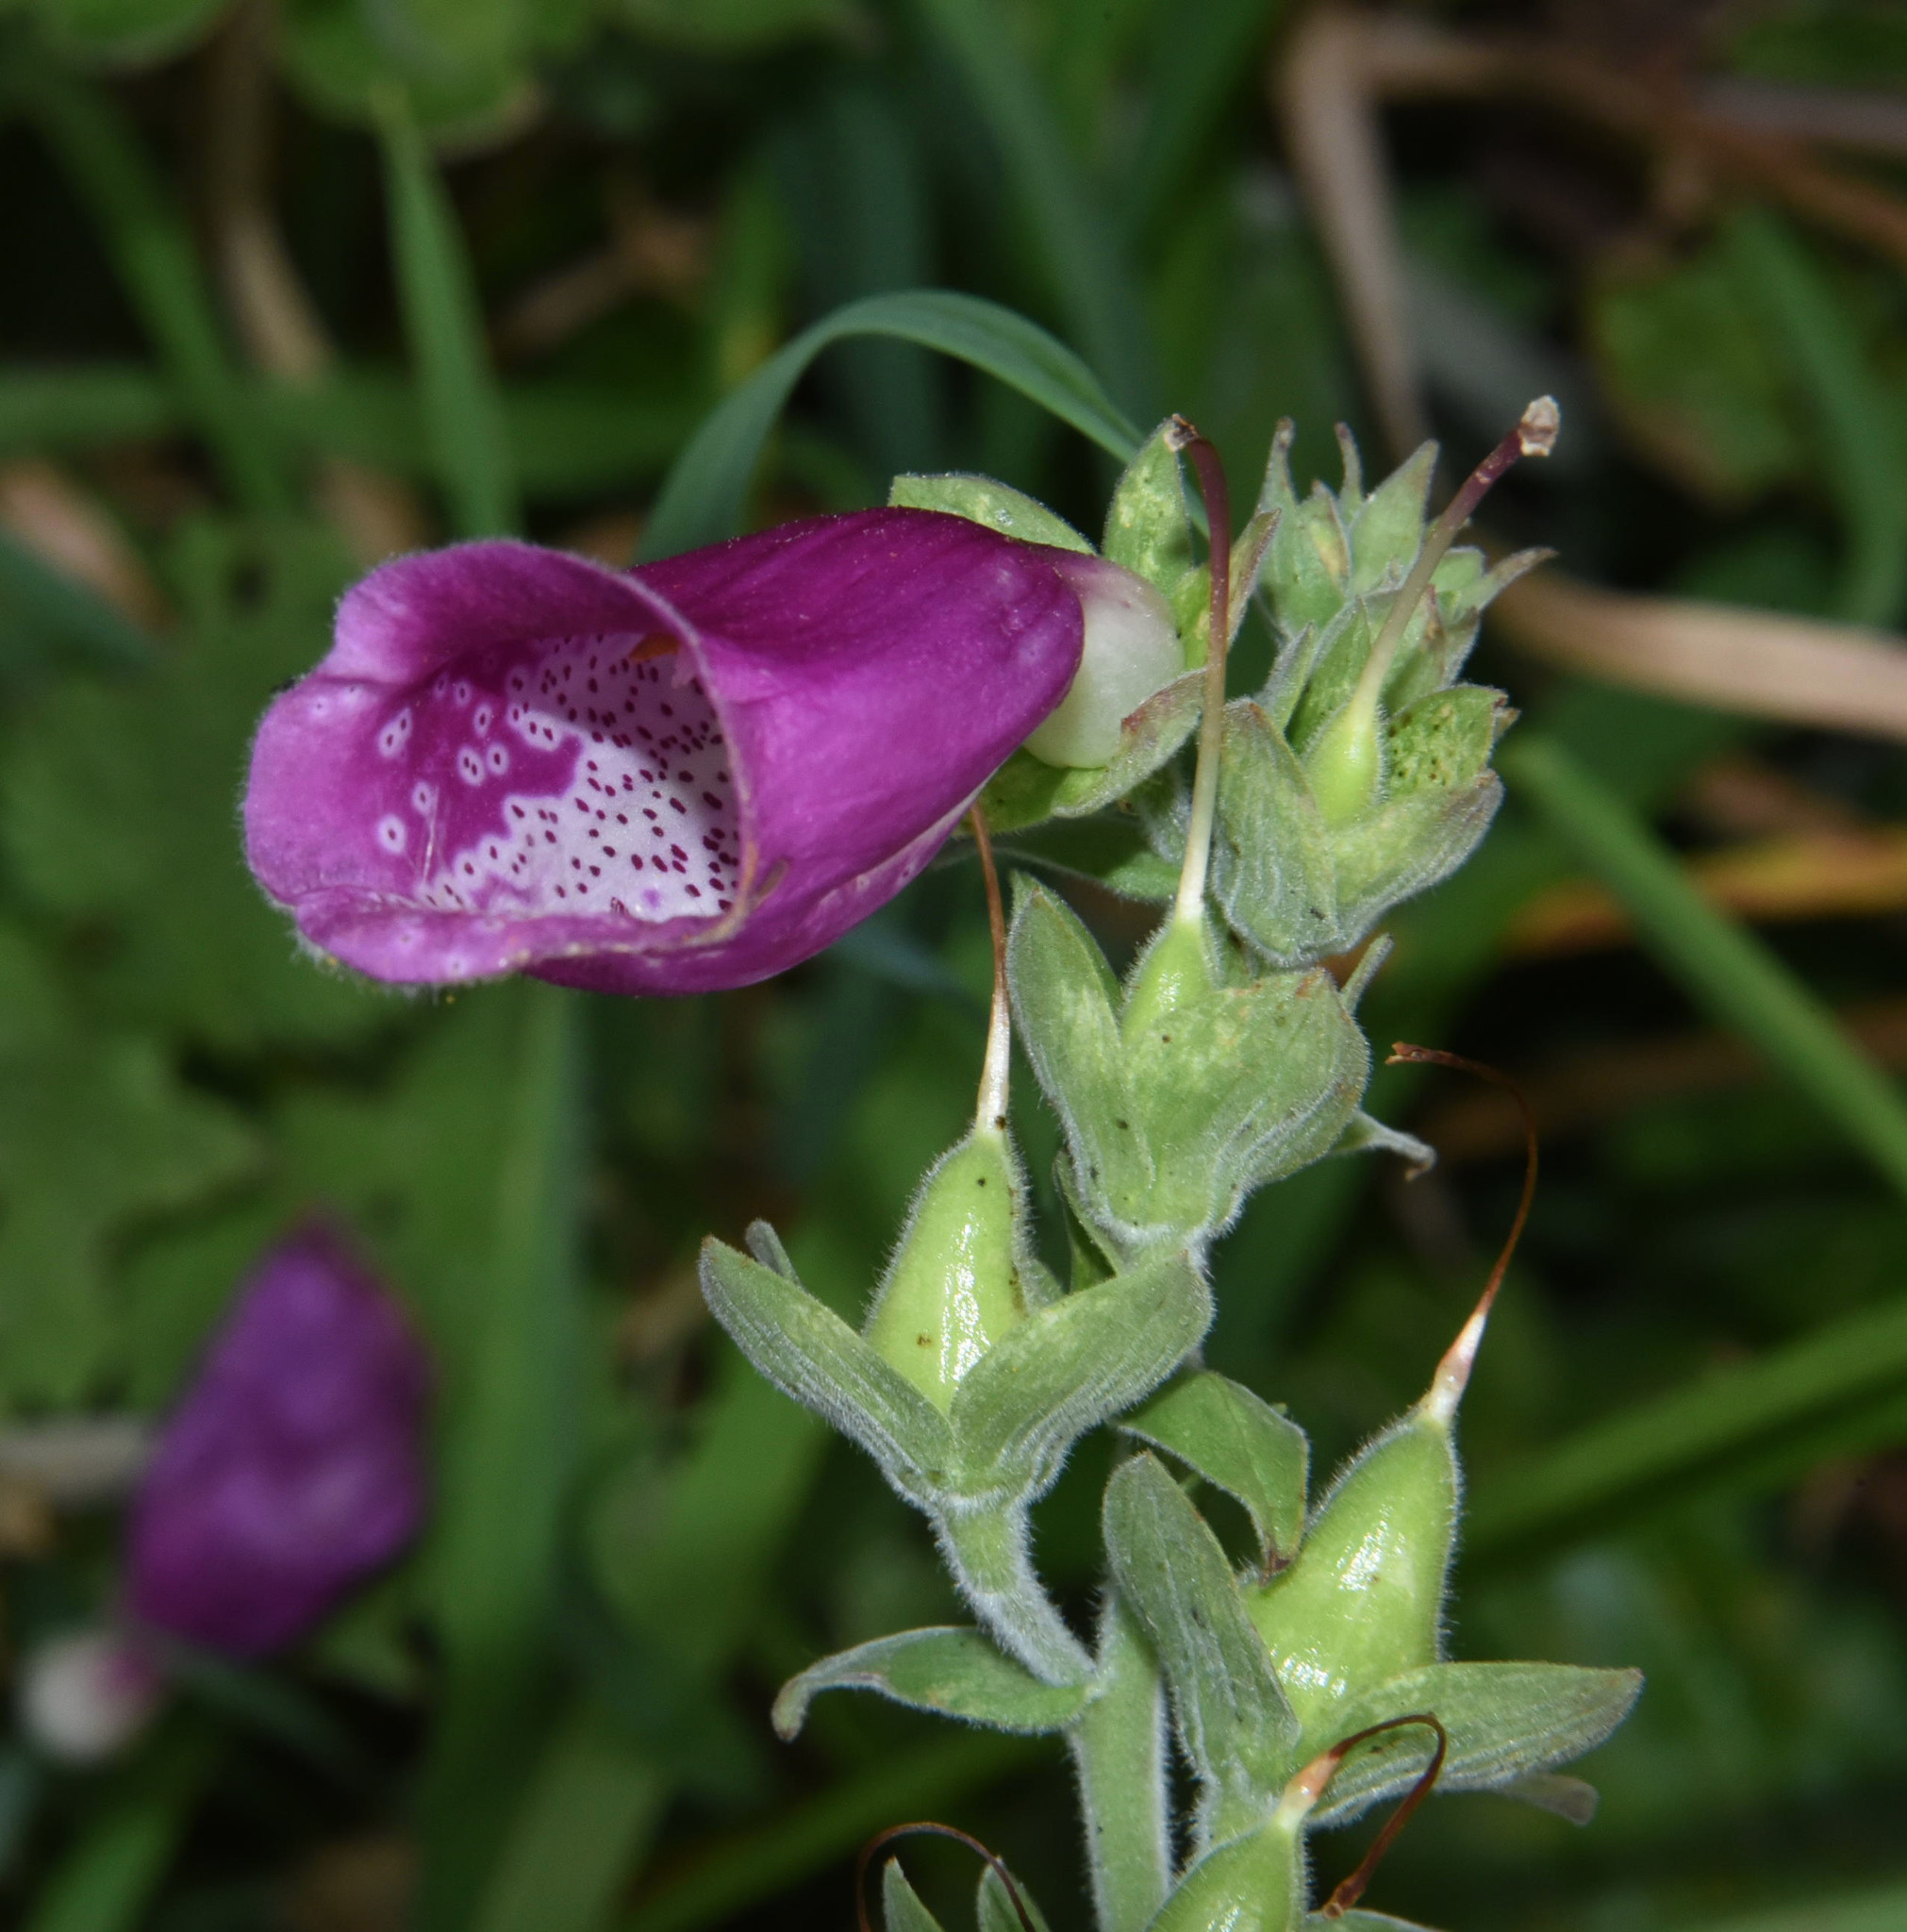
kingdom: Plantae
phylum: Tracheophyta
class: Magnoliopsida
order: Lamiales
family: Plantaginaceae
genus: Digitalis
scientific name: Digitalis purpurea
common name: Foxglove
